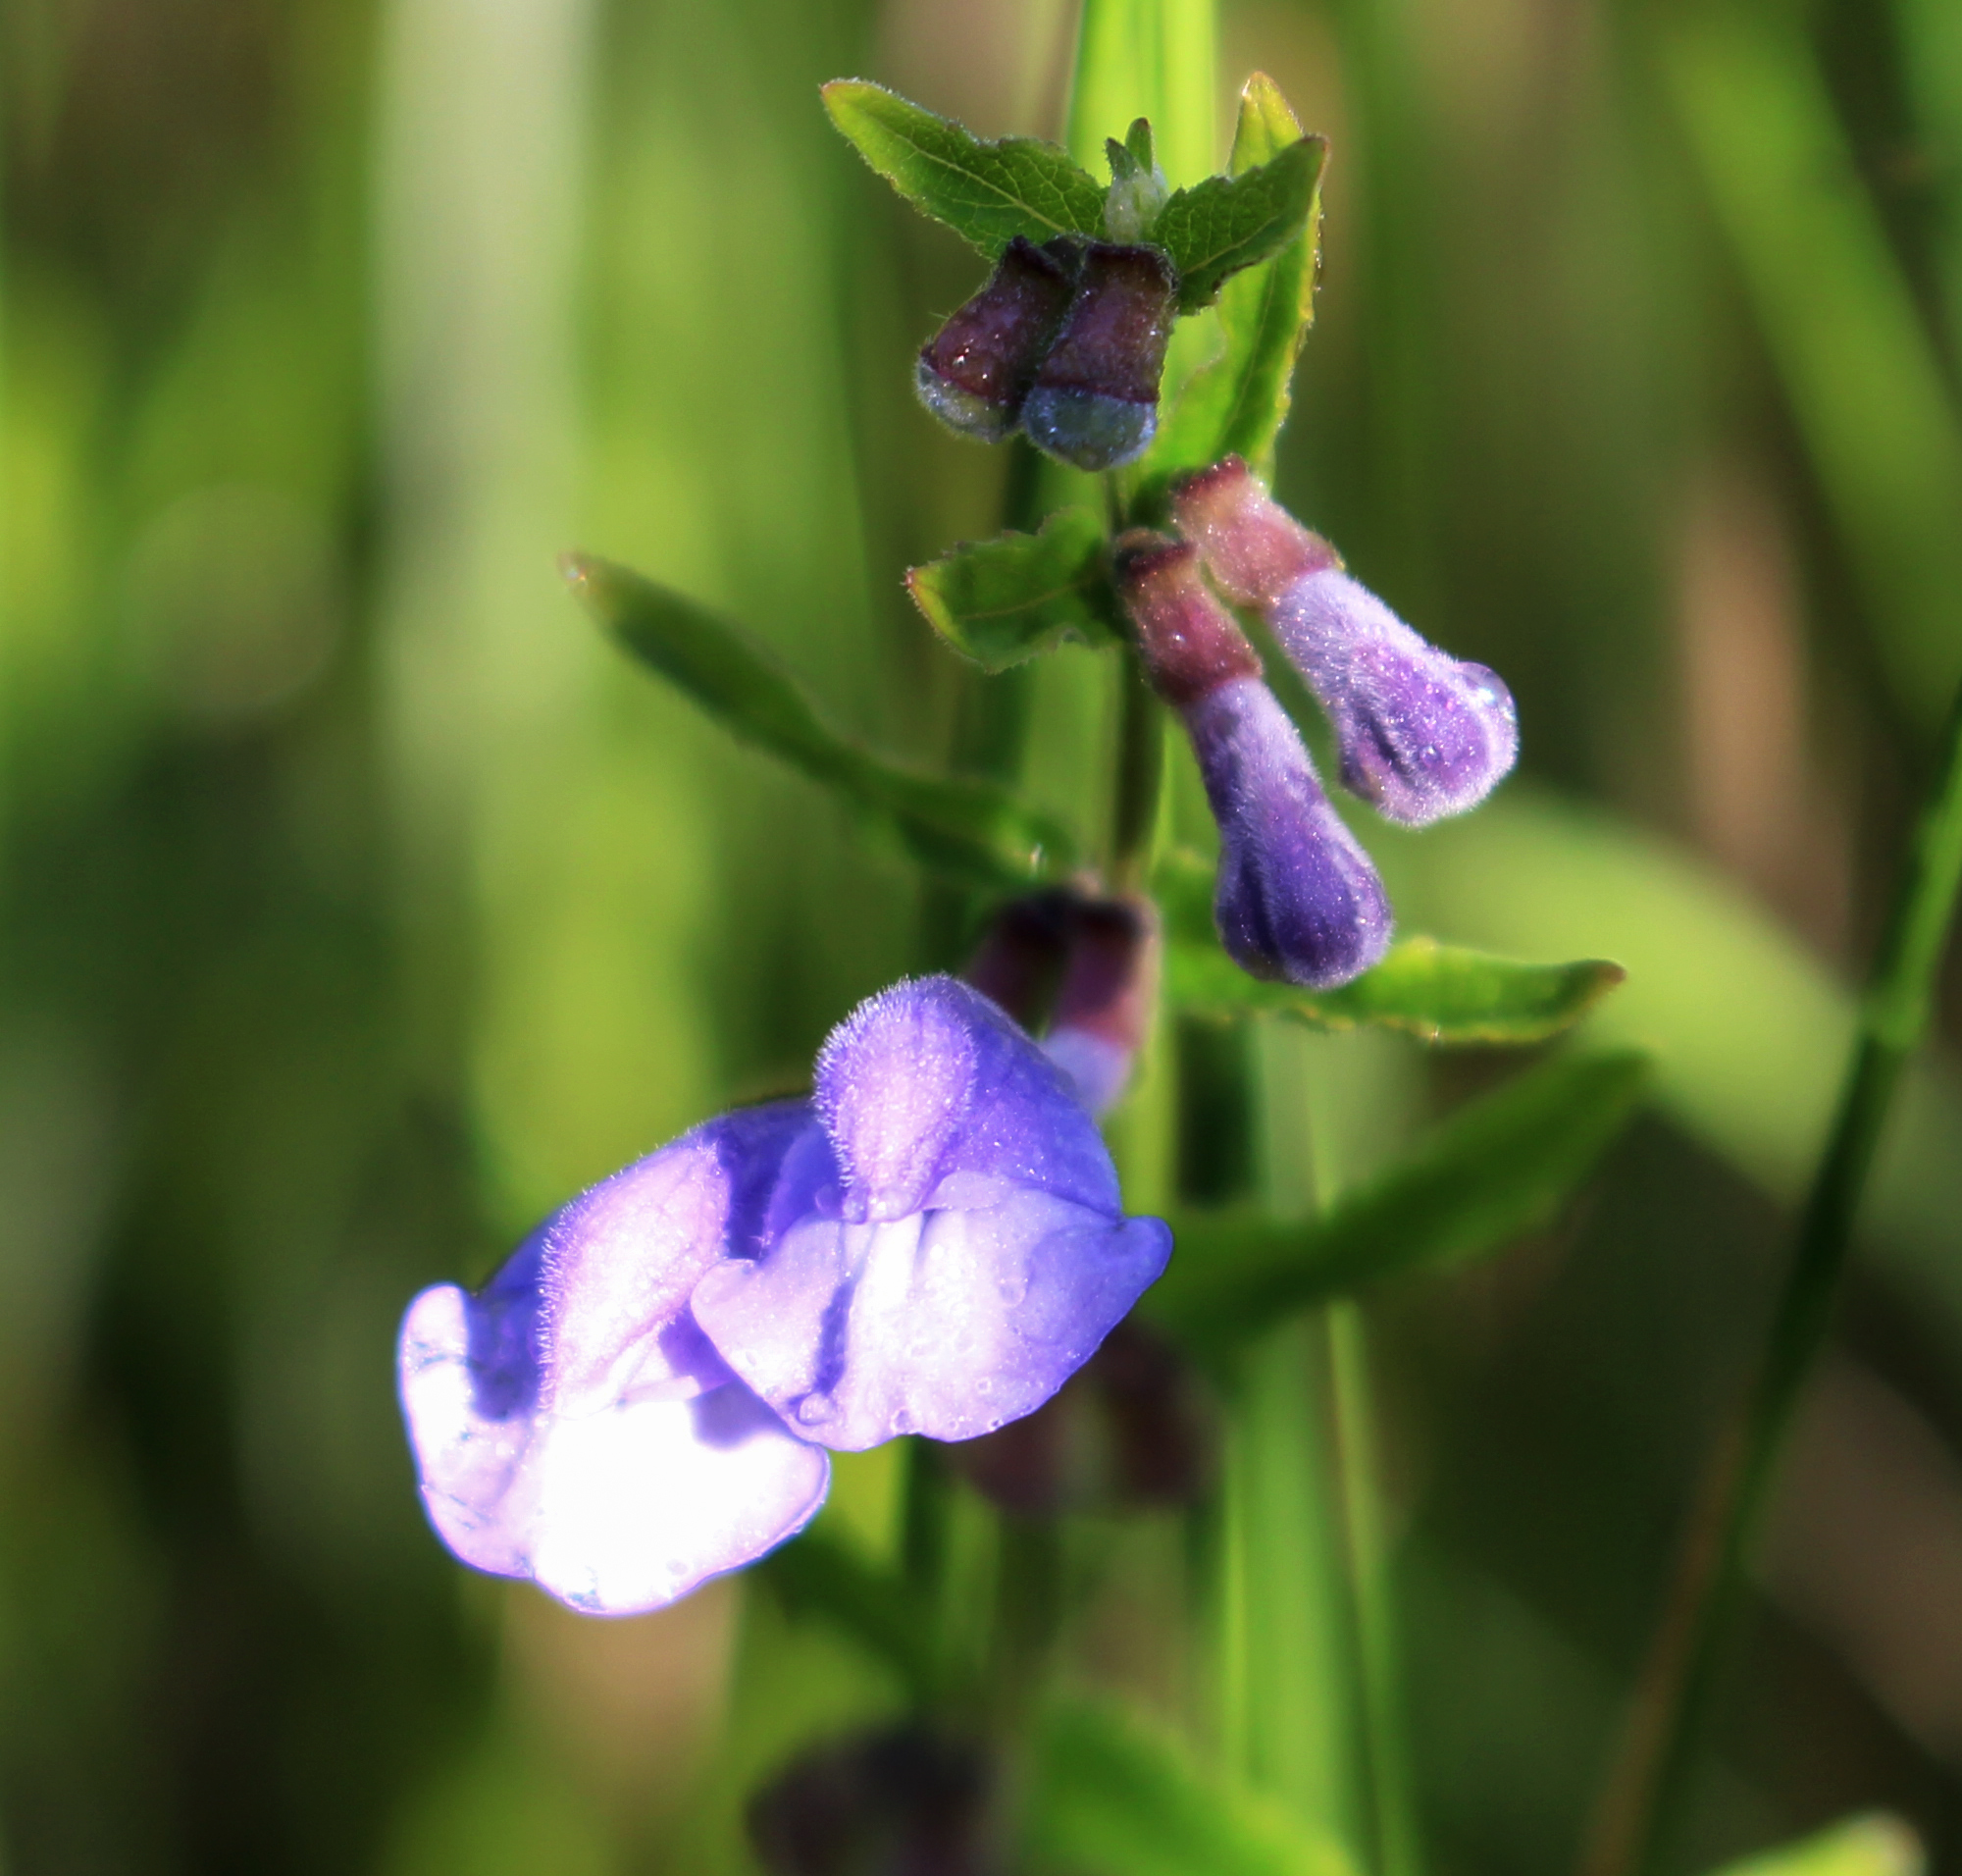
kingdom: Plantae
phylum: Tracheophyta
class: Magnoliopsida
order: Lamiales
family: Lamiaceae
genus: Scutellaria
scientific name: Scutellaria galericulata
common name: Skullcap
